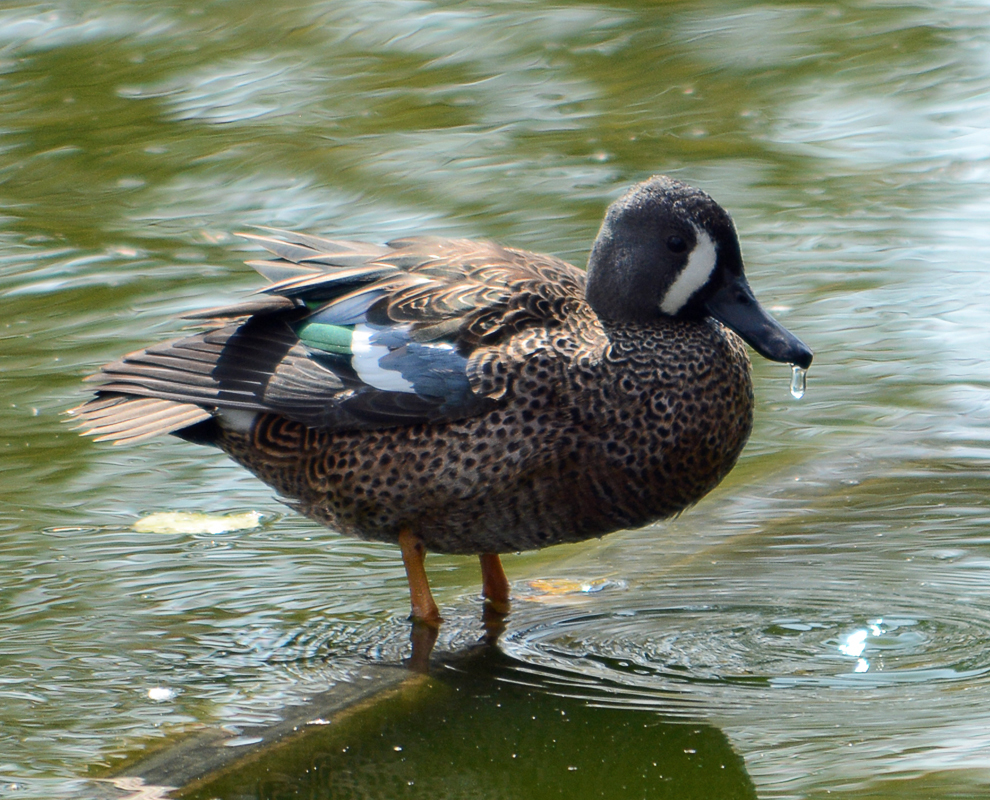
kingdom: Animalia
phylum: Chordata
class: Aves
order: Anseriformes
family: Anatidae
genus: Spatula
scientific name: Spatula discors
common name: Blue-winged teal
